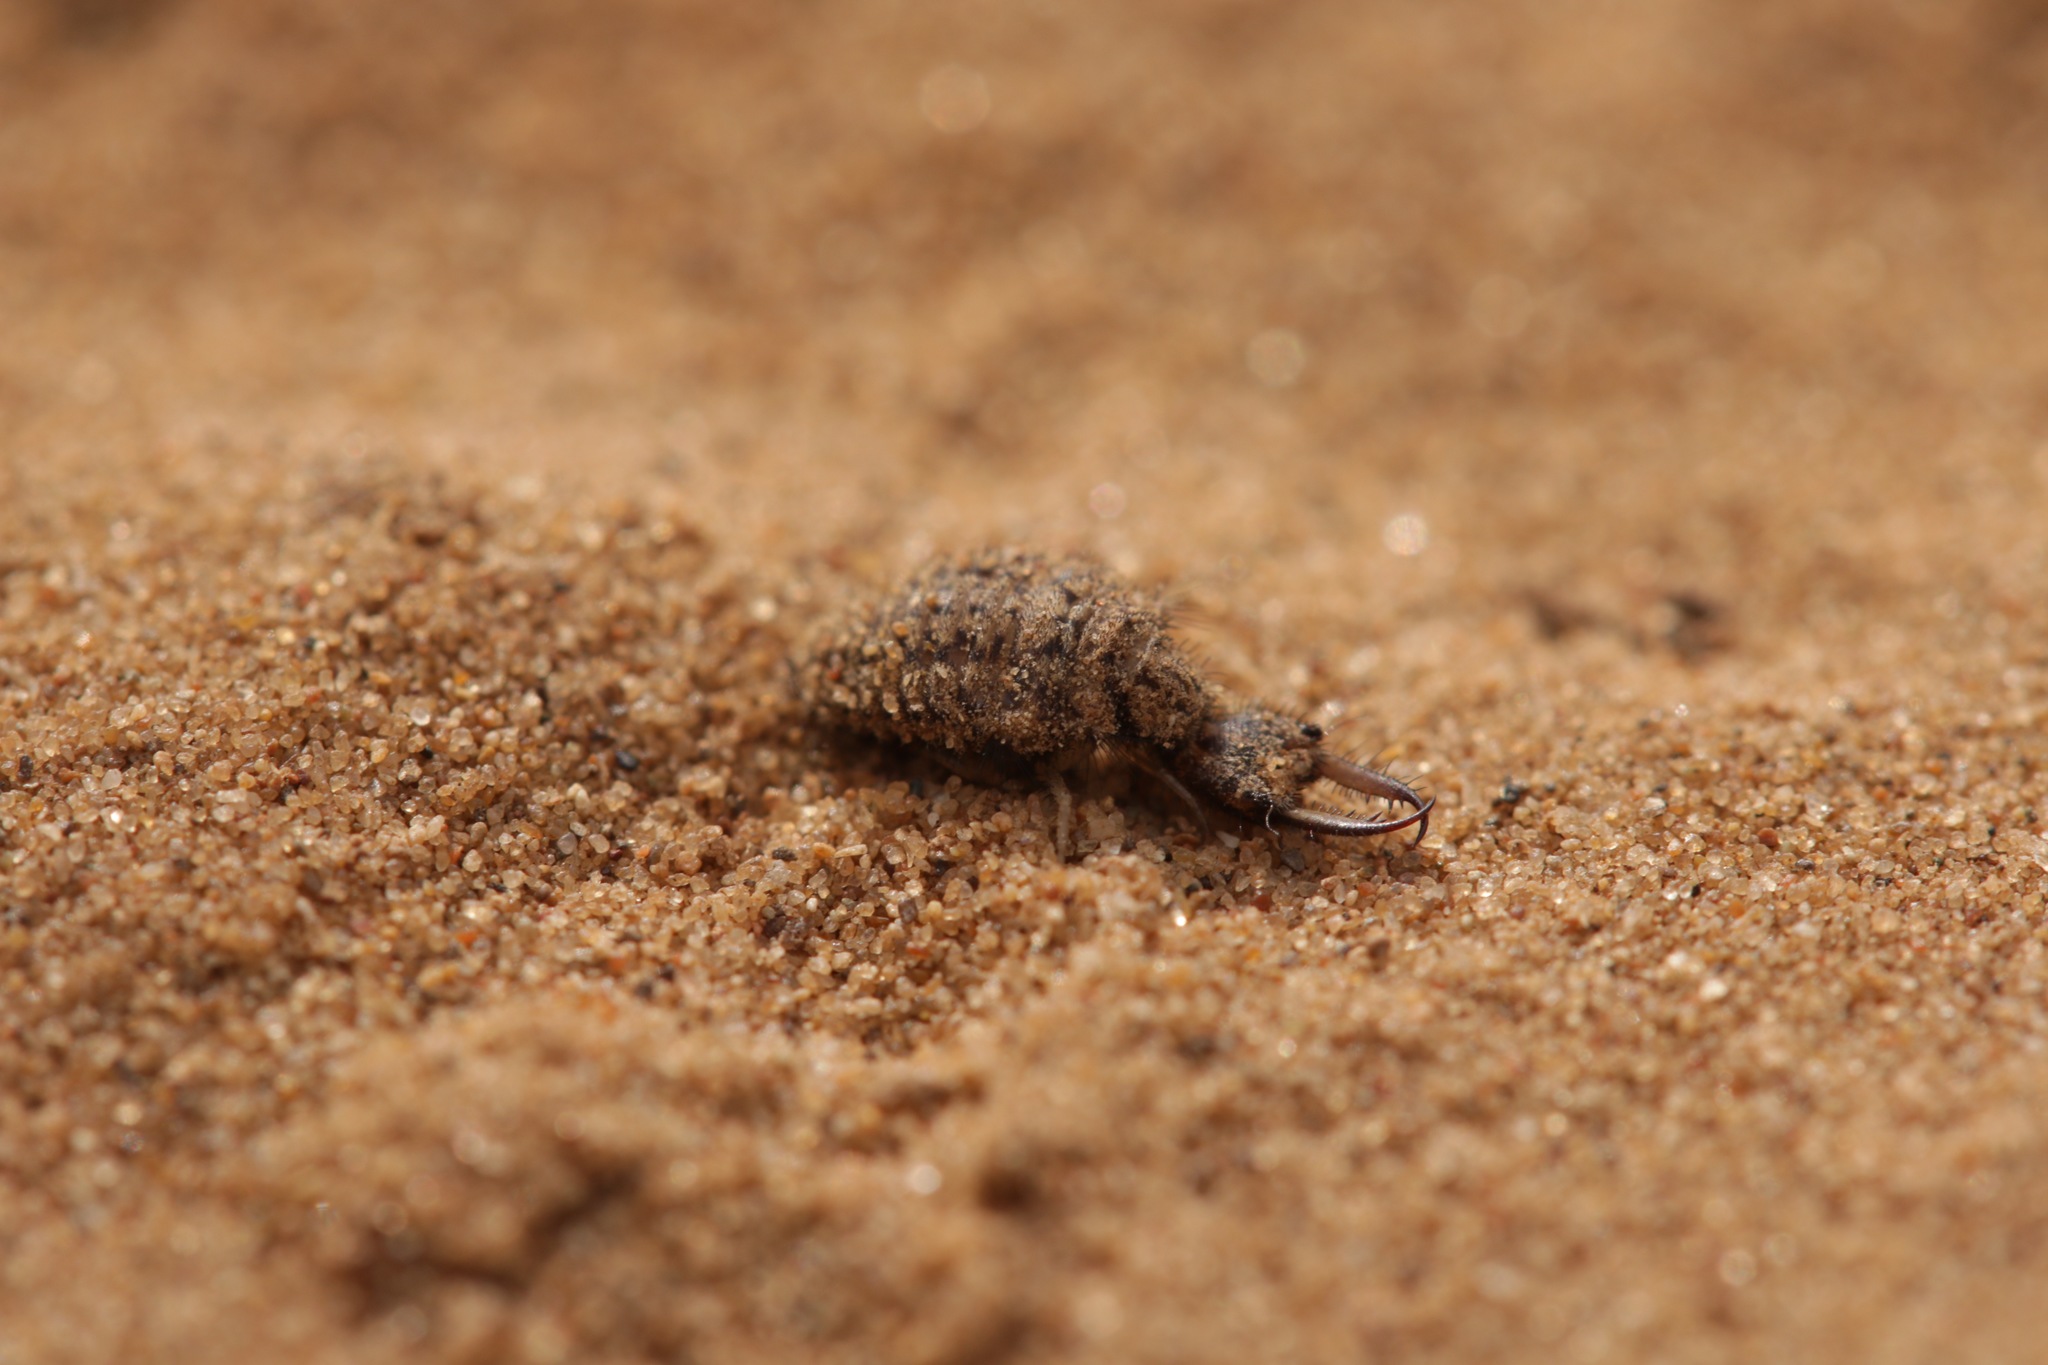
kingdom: Animalia
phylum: Arthropoda
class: Insecta
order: Neuroptera
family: Myrmeleontidae
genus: Myrmeleon
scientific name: Myrmeleon formicarius
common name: Ant-lion
